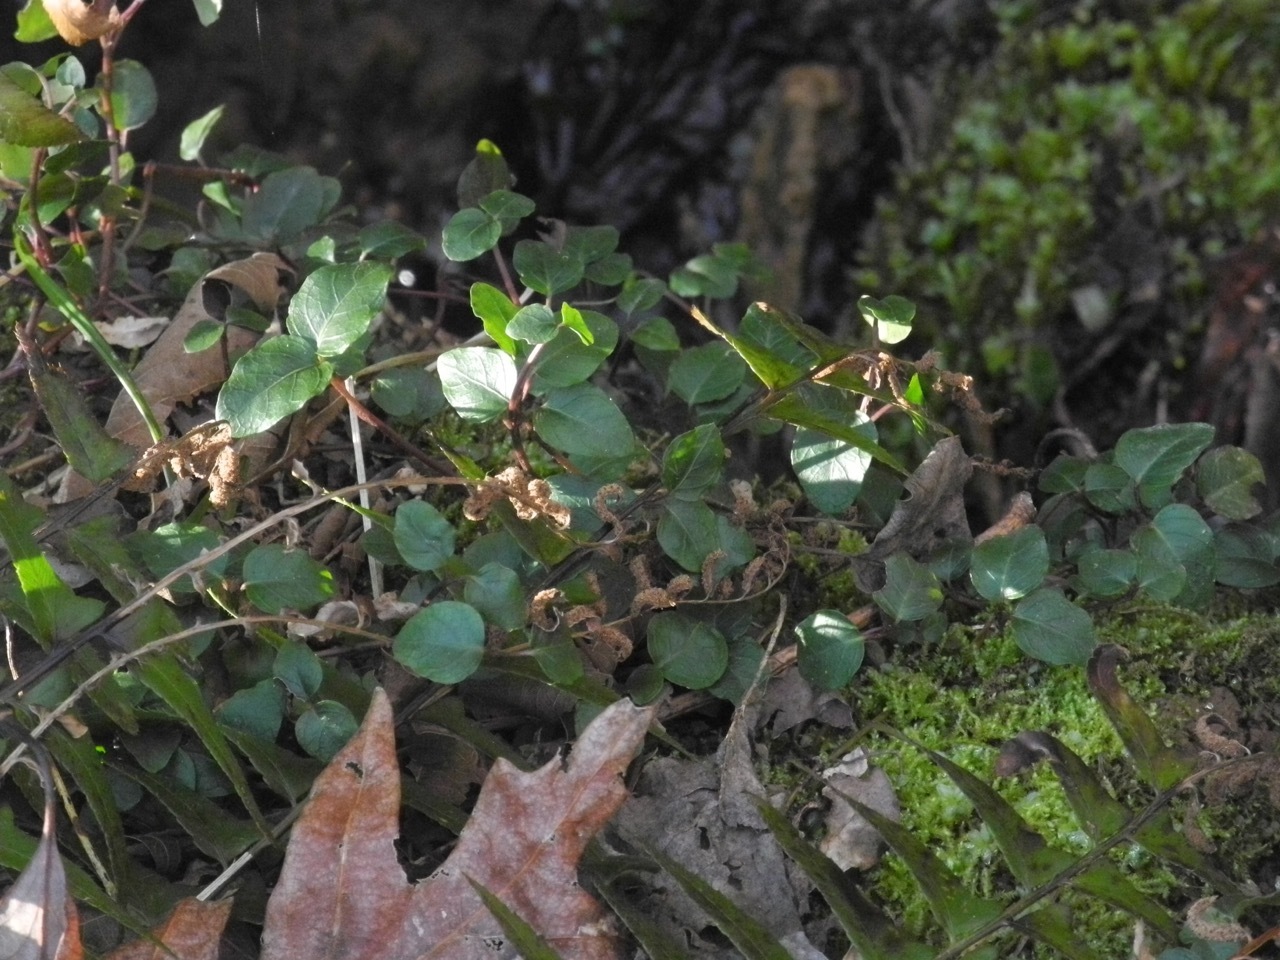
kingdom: Plantae
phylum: Tracheophyta
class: Magnoliopsida
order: Gentianales
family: Rubiaceae
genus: Mitchella
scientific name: Mitchella repens
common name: Partridge-berry
